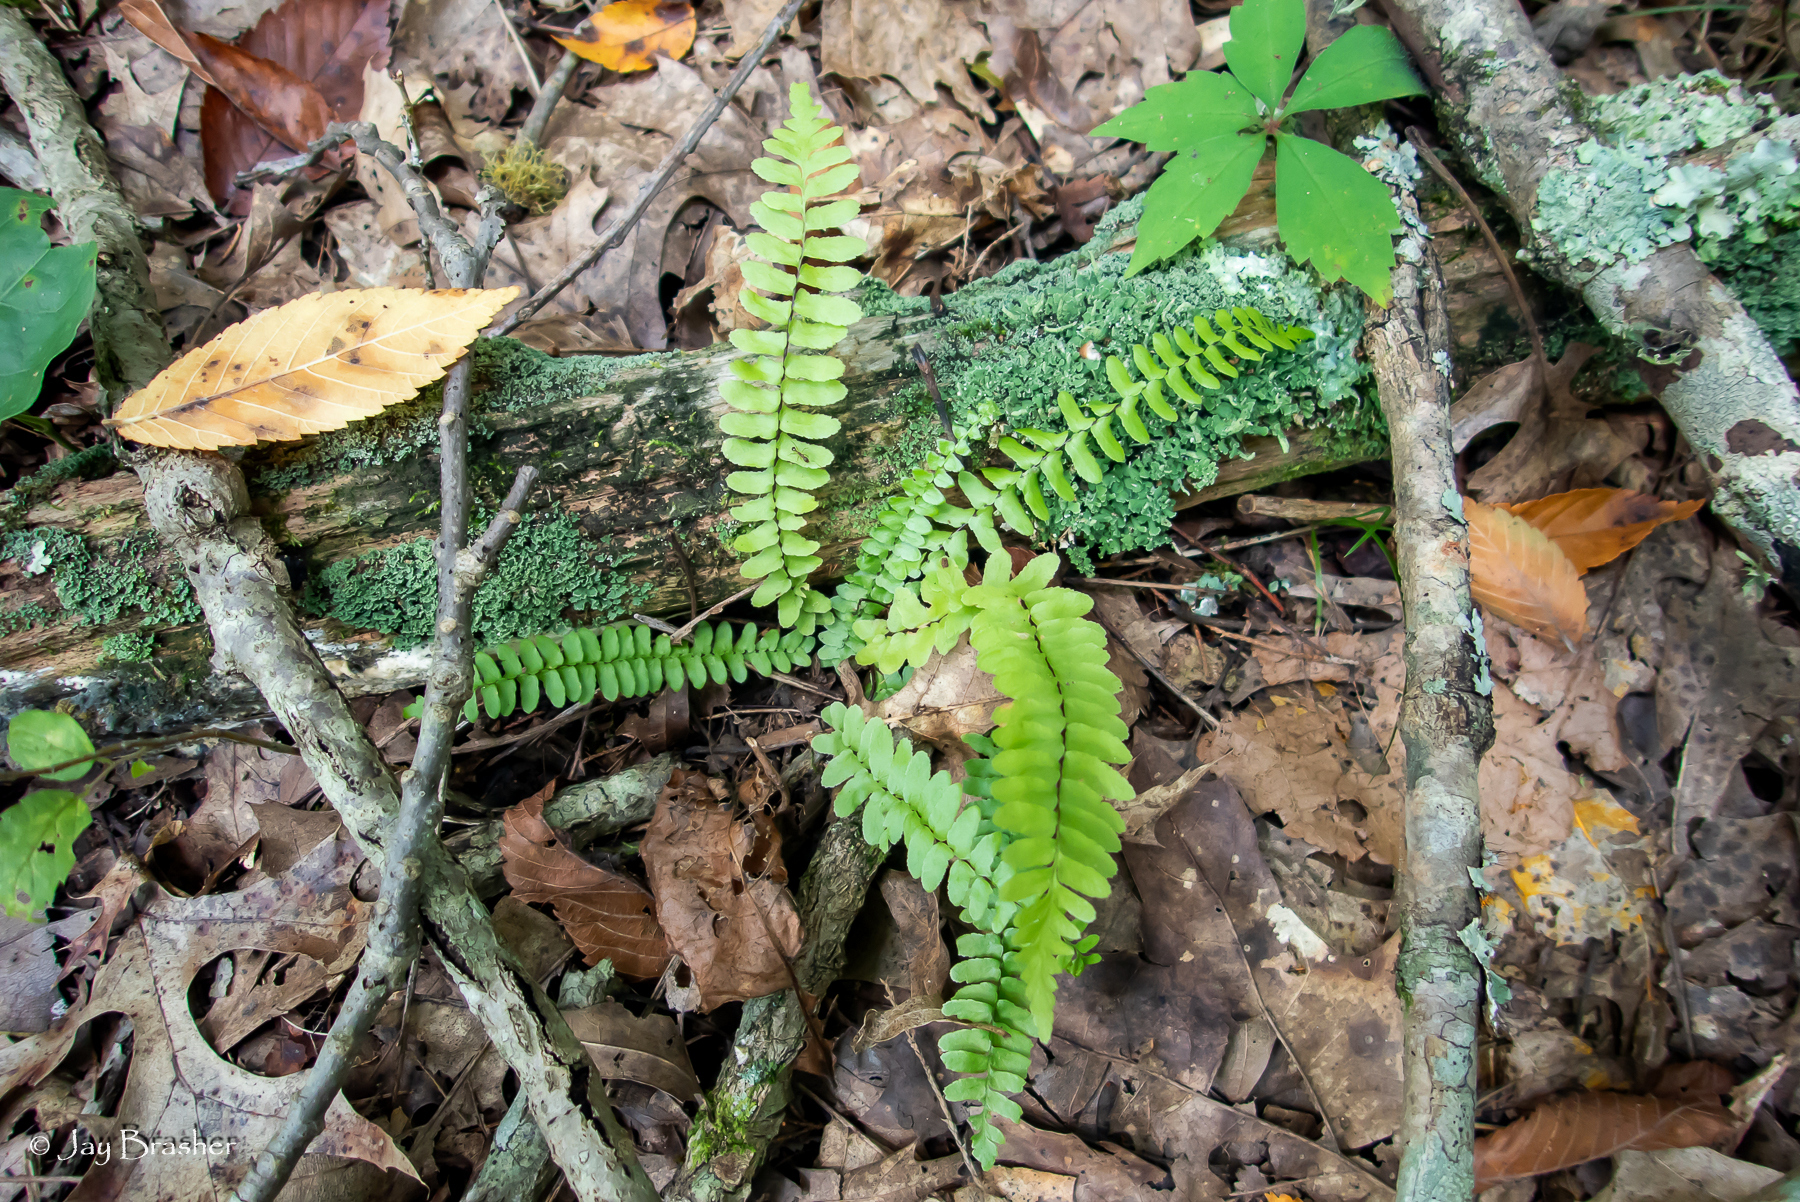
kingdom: Plantae
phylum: Tracheophyta
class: Polypodiopsida
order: Polypodiales
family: Aspleniaceae
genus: Asplenium
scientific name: Asplenium platyneuron
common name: Ebony spleenwort
